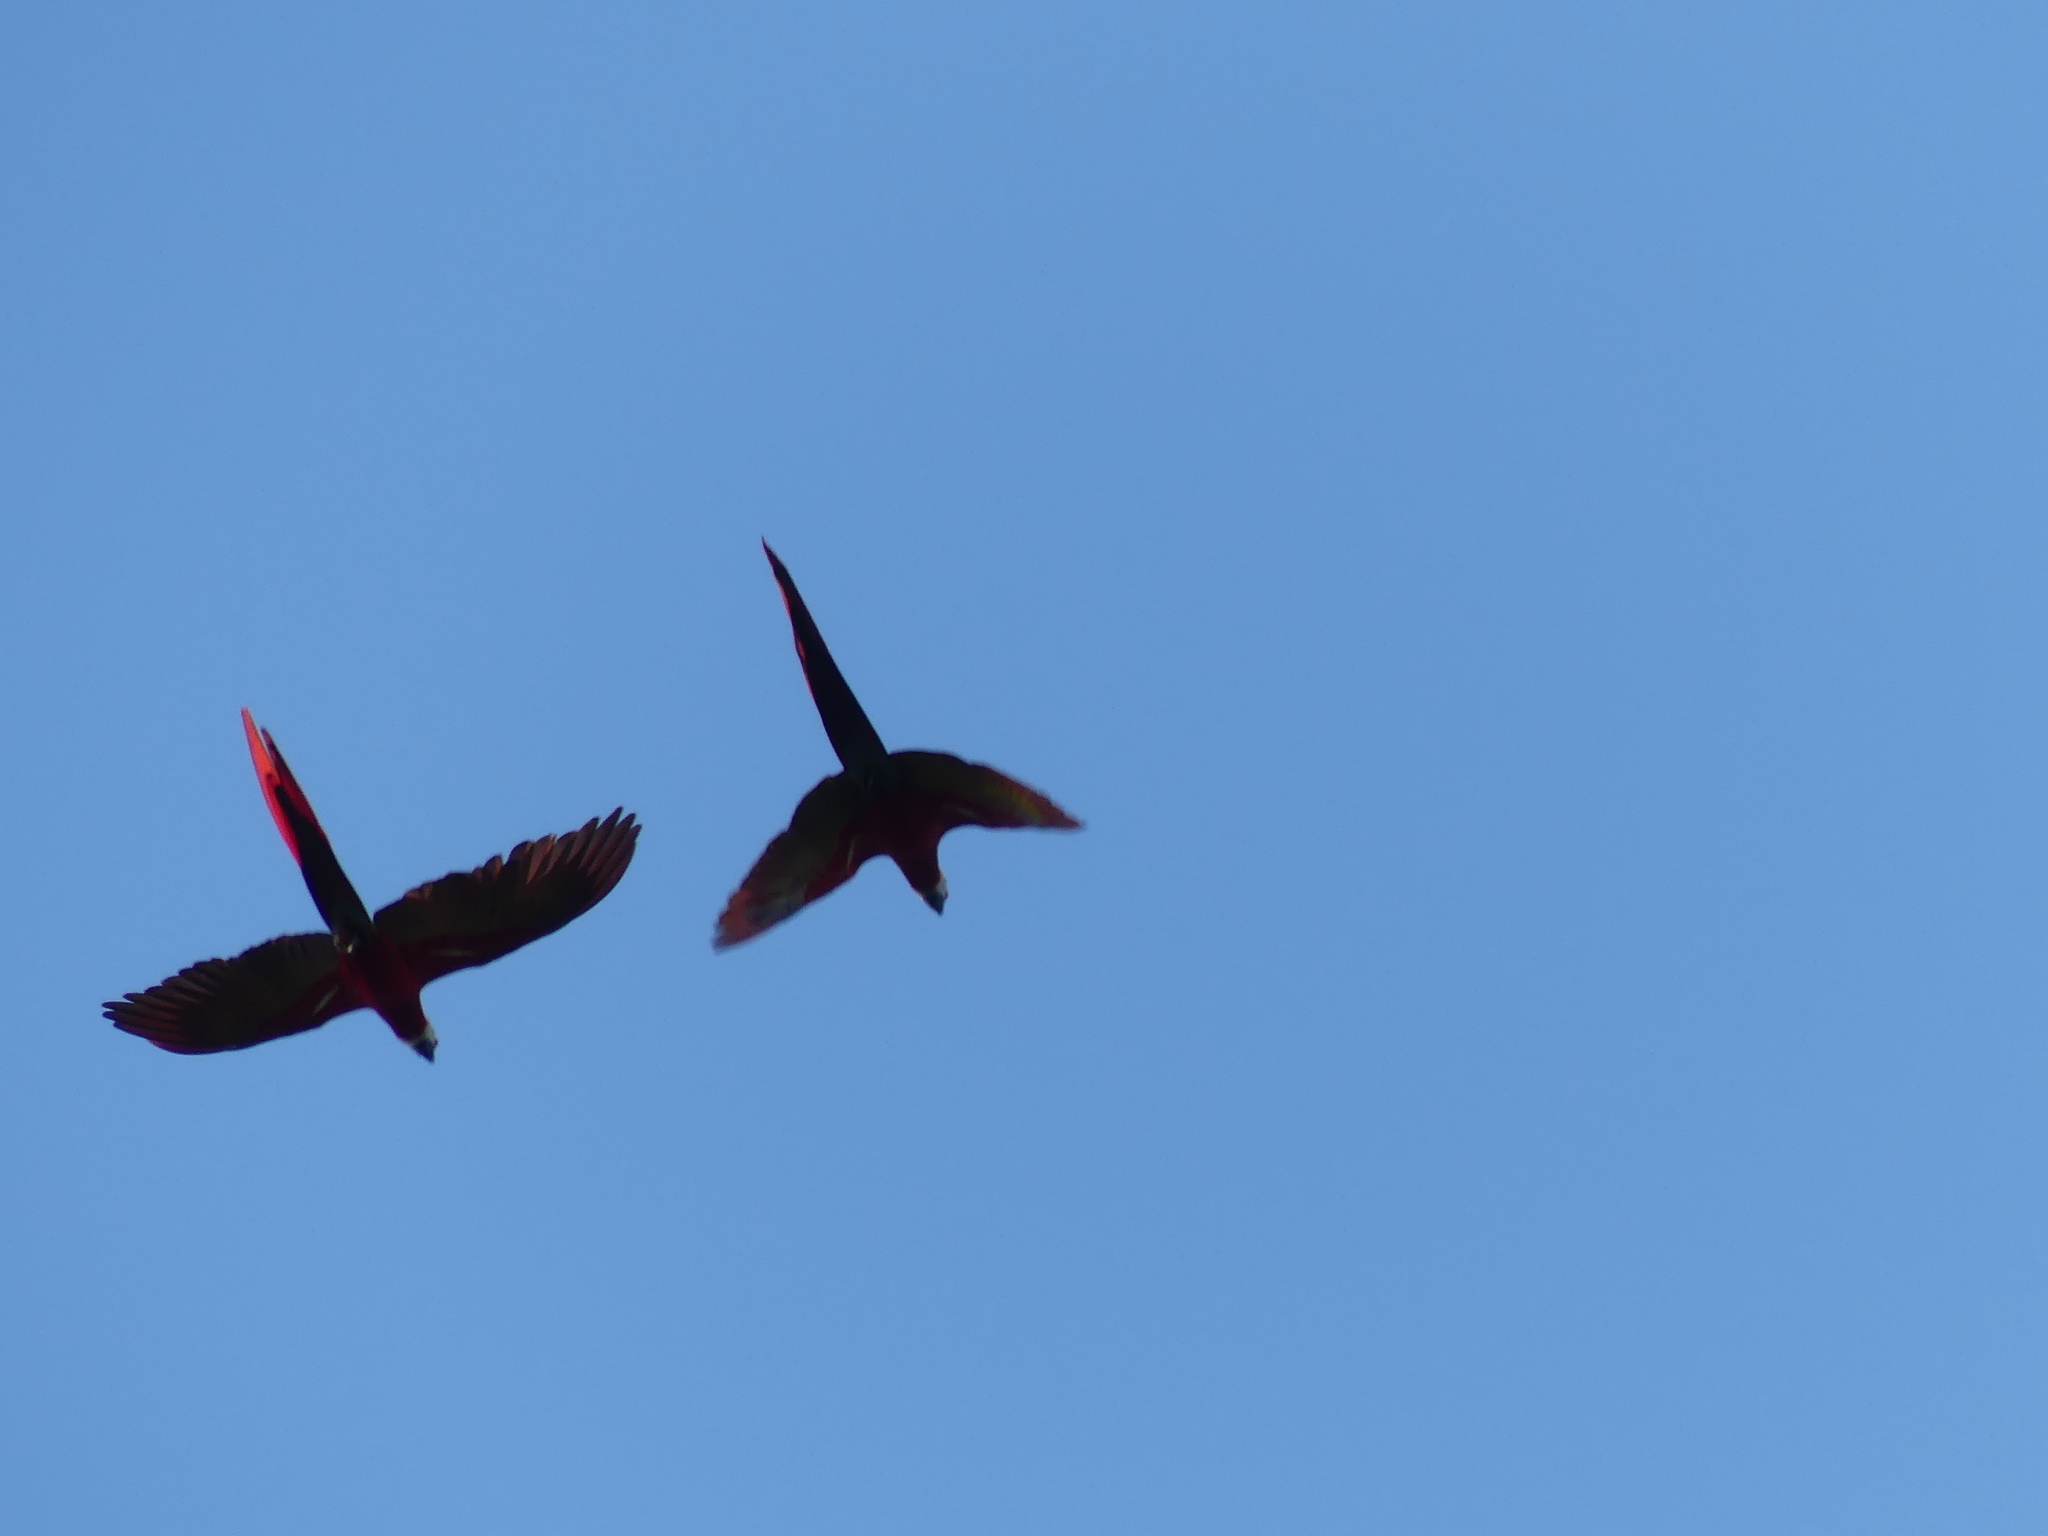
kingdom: Animalia
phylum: Chordata
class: Aves
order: Psittaciformes
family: Psittacidae
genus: Ara
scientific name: Ara macao
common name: Scarlet macaw
